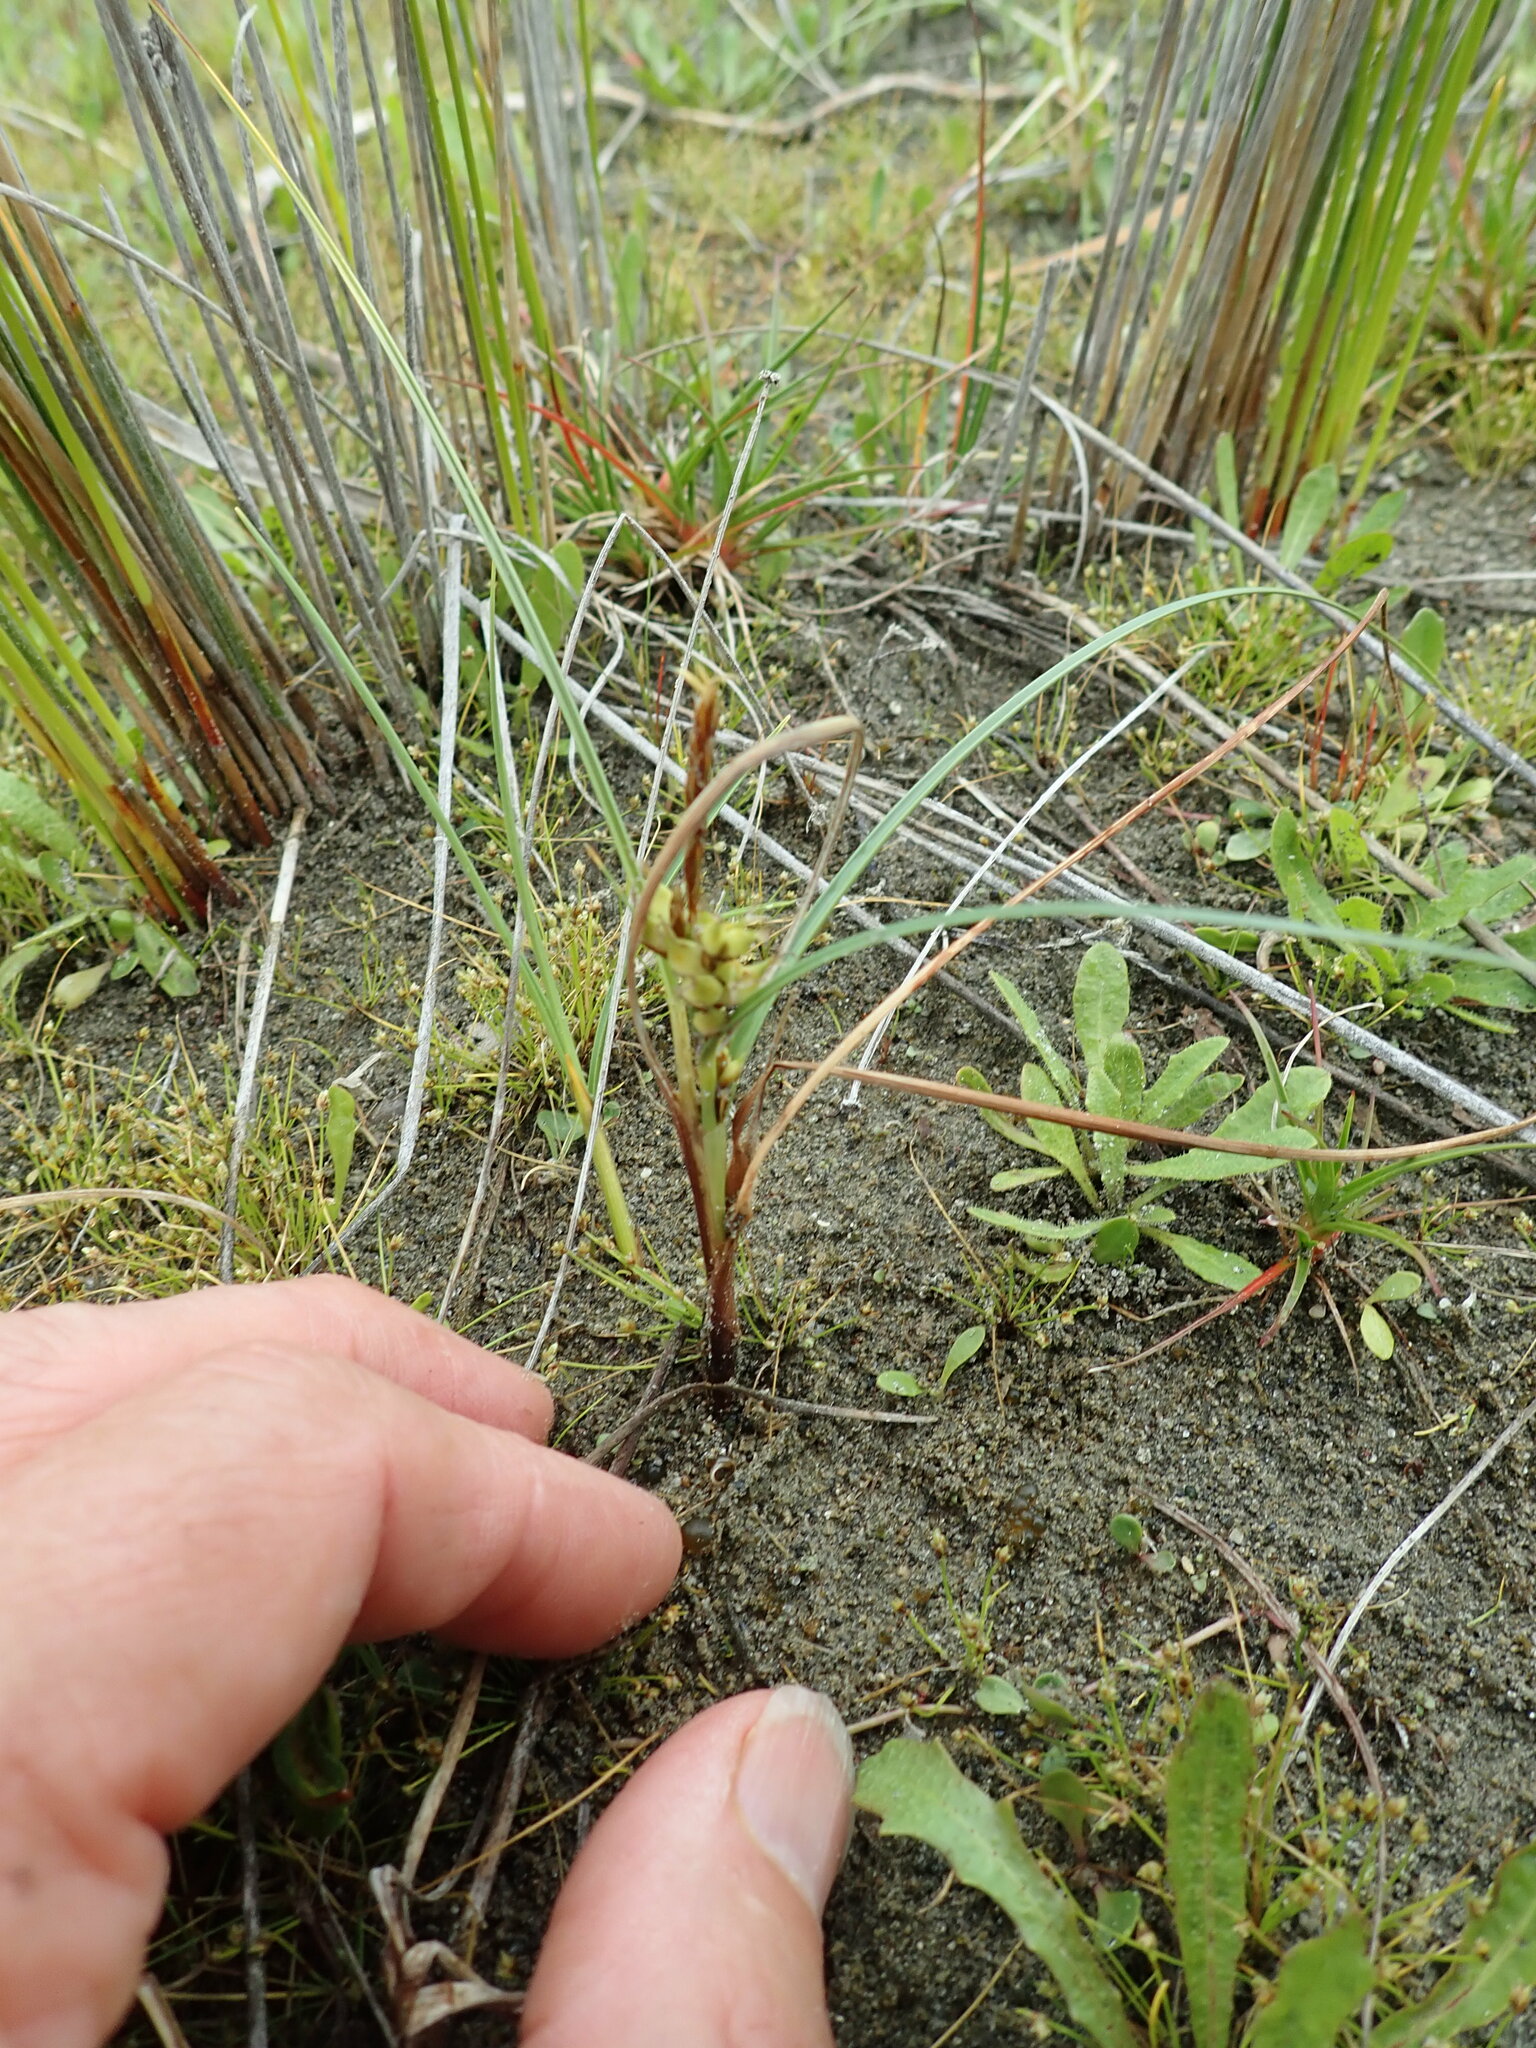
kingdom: Plantae
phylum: Tracheophyta
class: Liliopsida
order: Poales
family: Cyperaceae
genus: Carex
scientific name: Carex pumila
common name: Dwarf sedge
